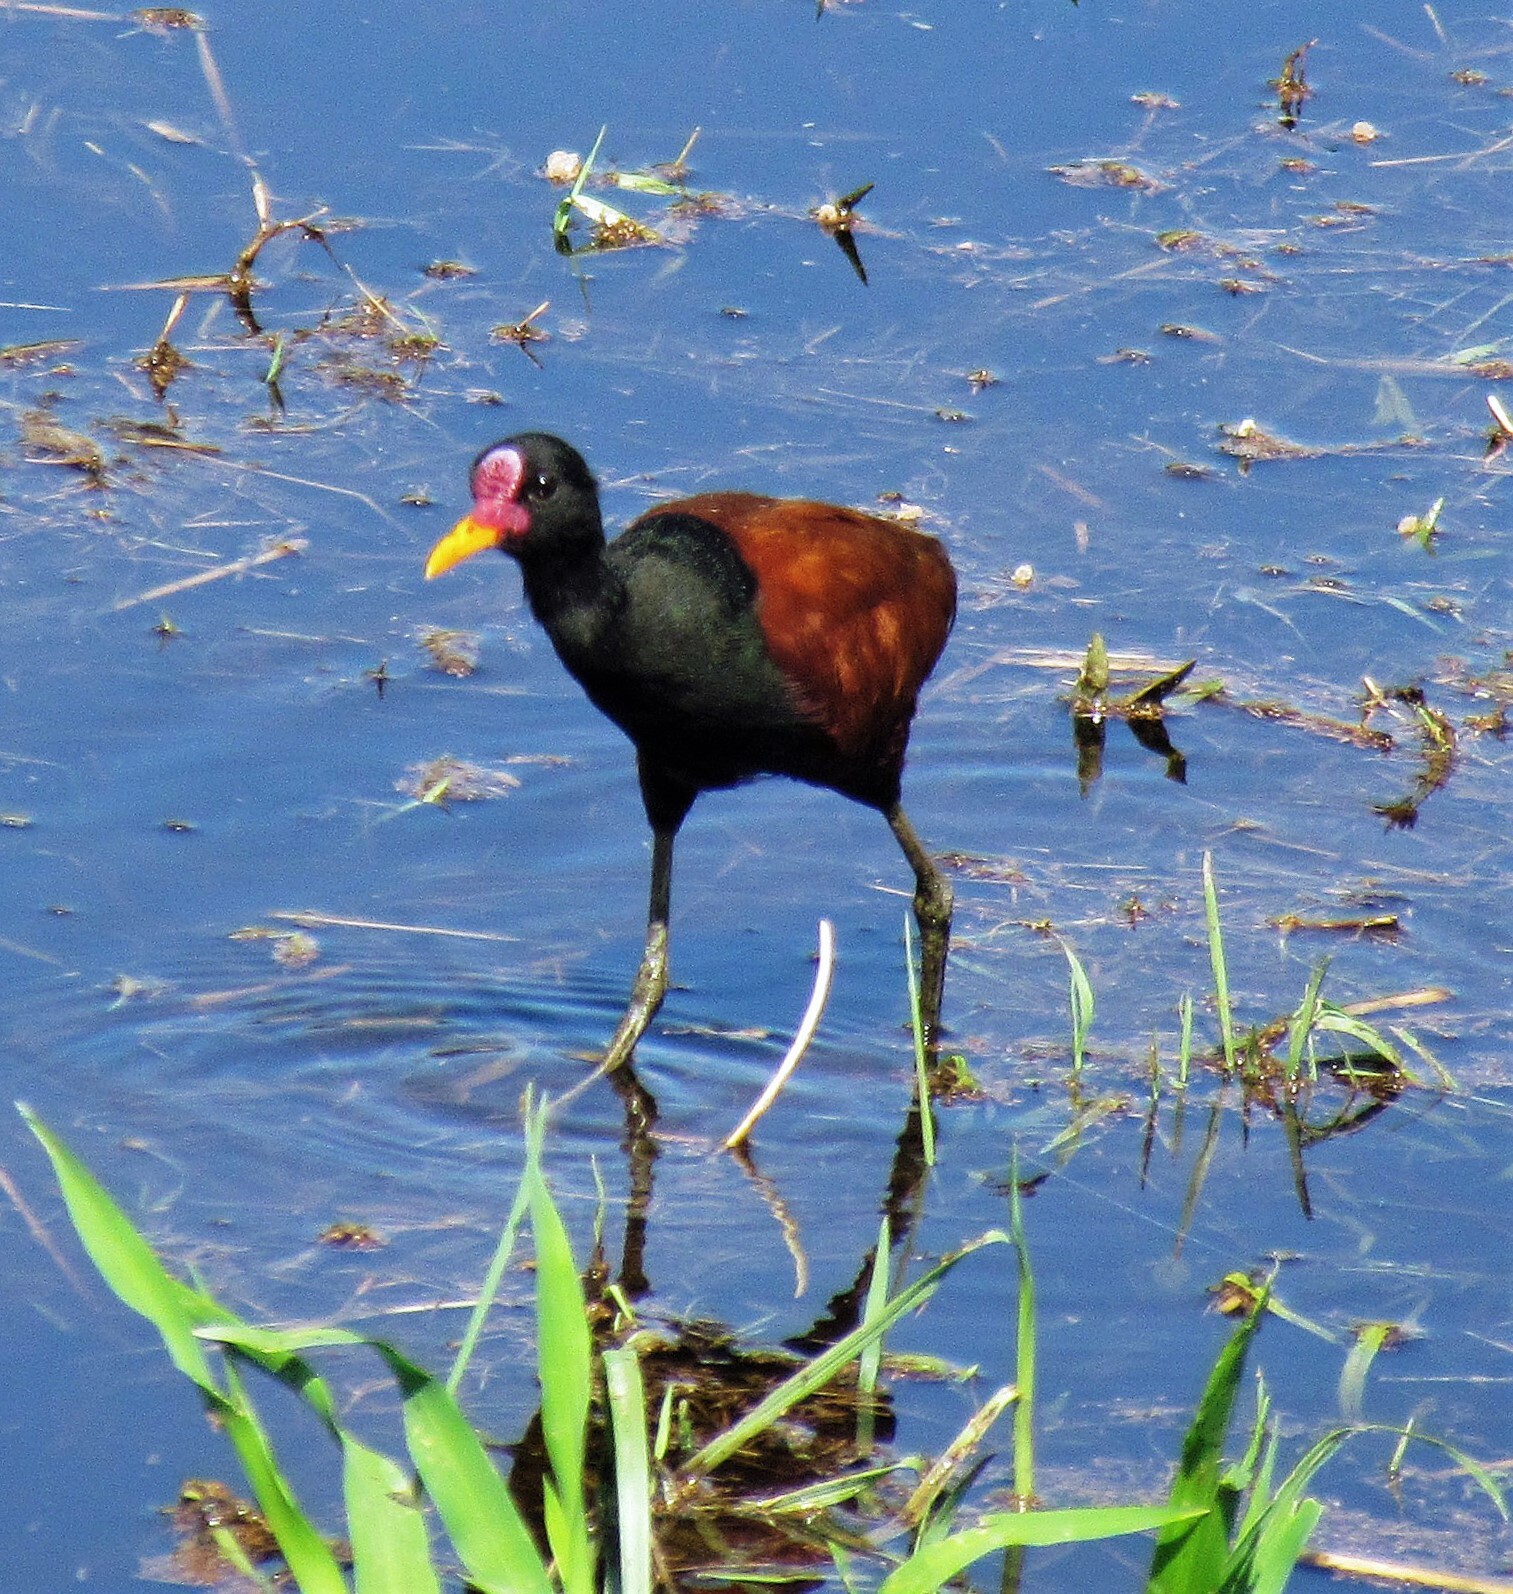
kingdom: Animalia
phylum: Chordata
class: Aves
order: Charadriiformes
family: Jacanidae
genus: Jacana
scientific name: Jacana jacana
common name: Wattled jacana
